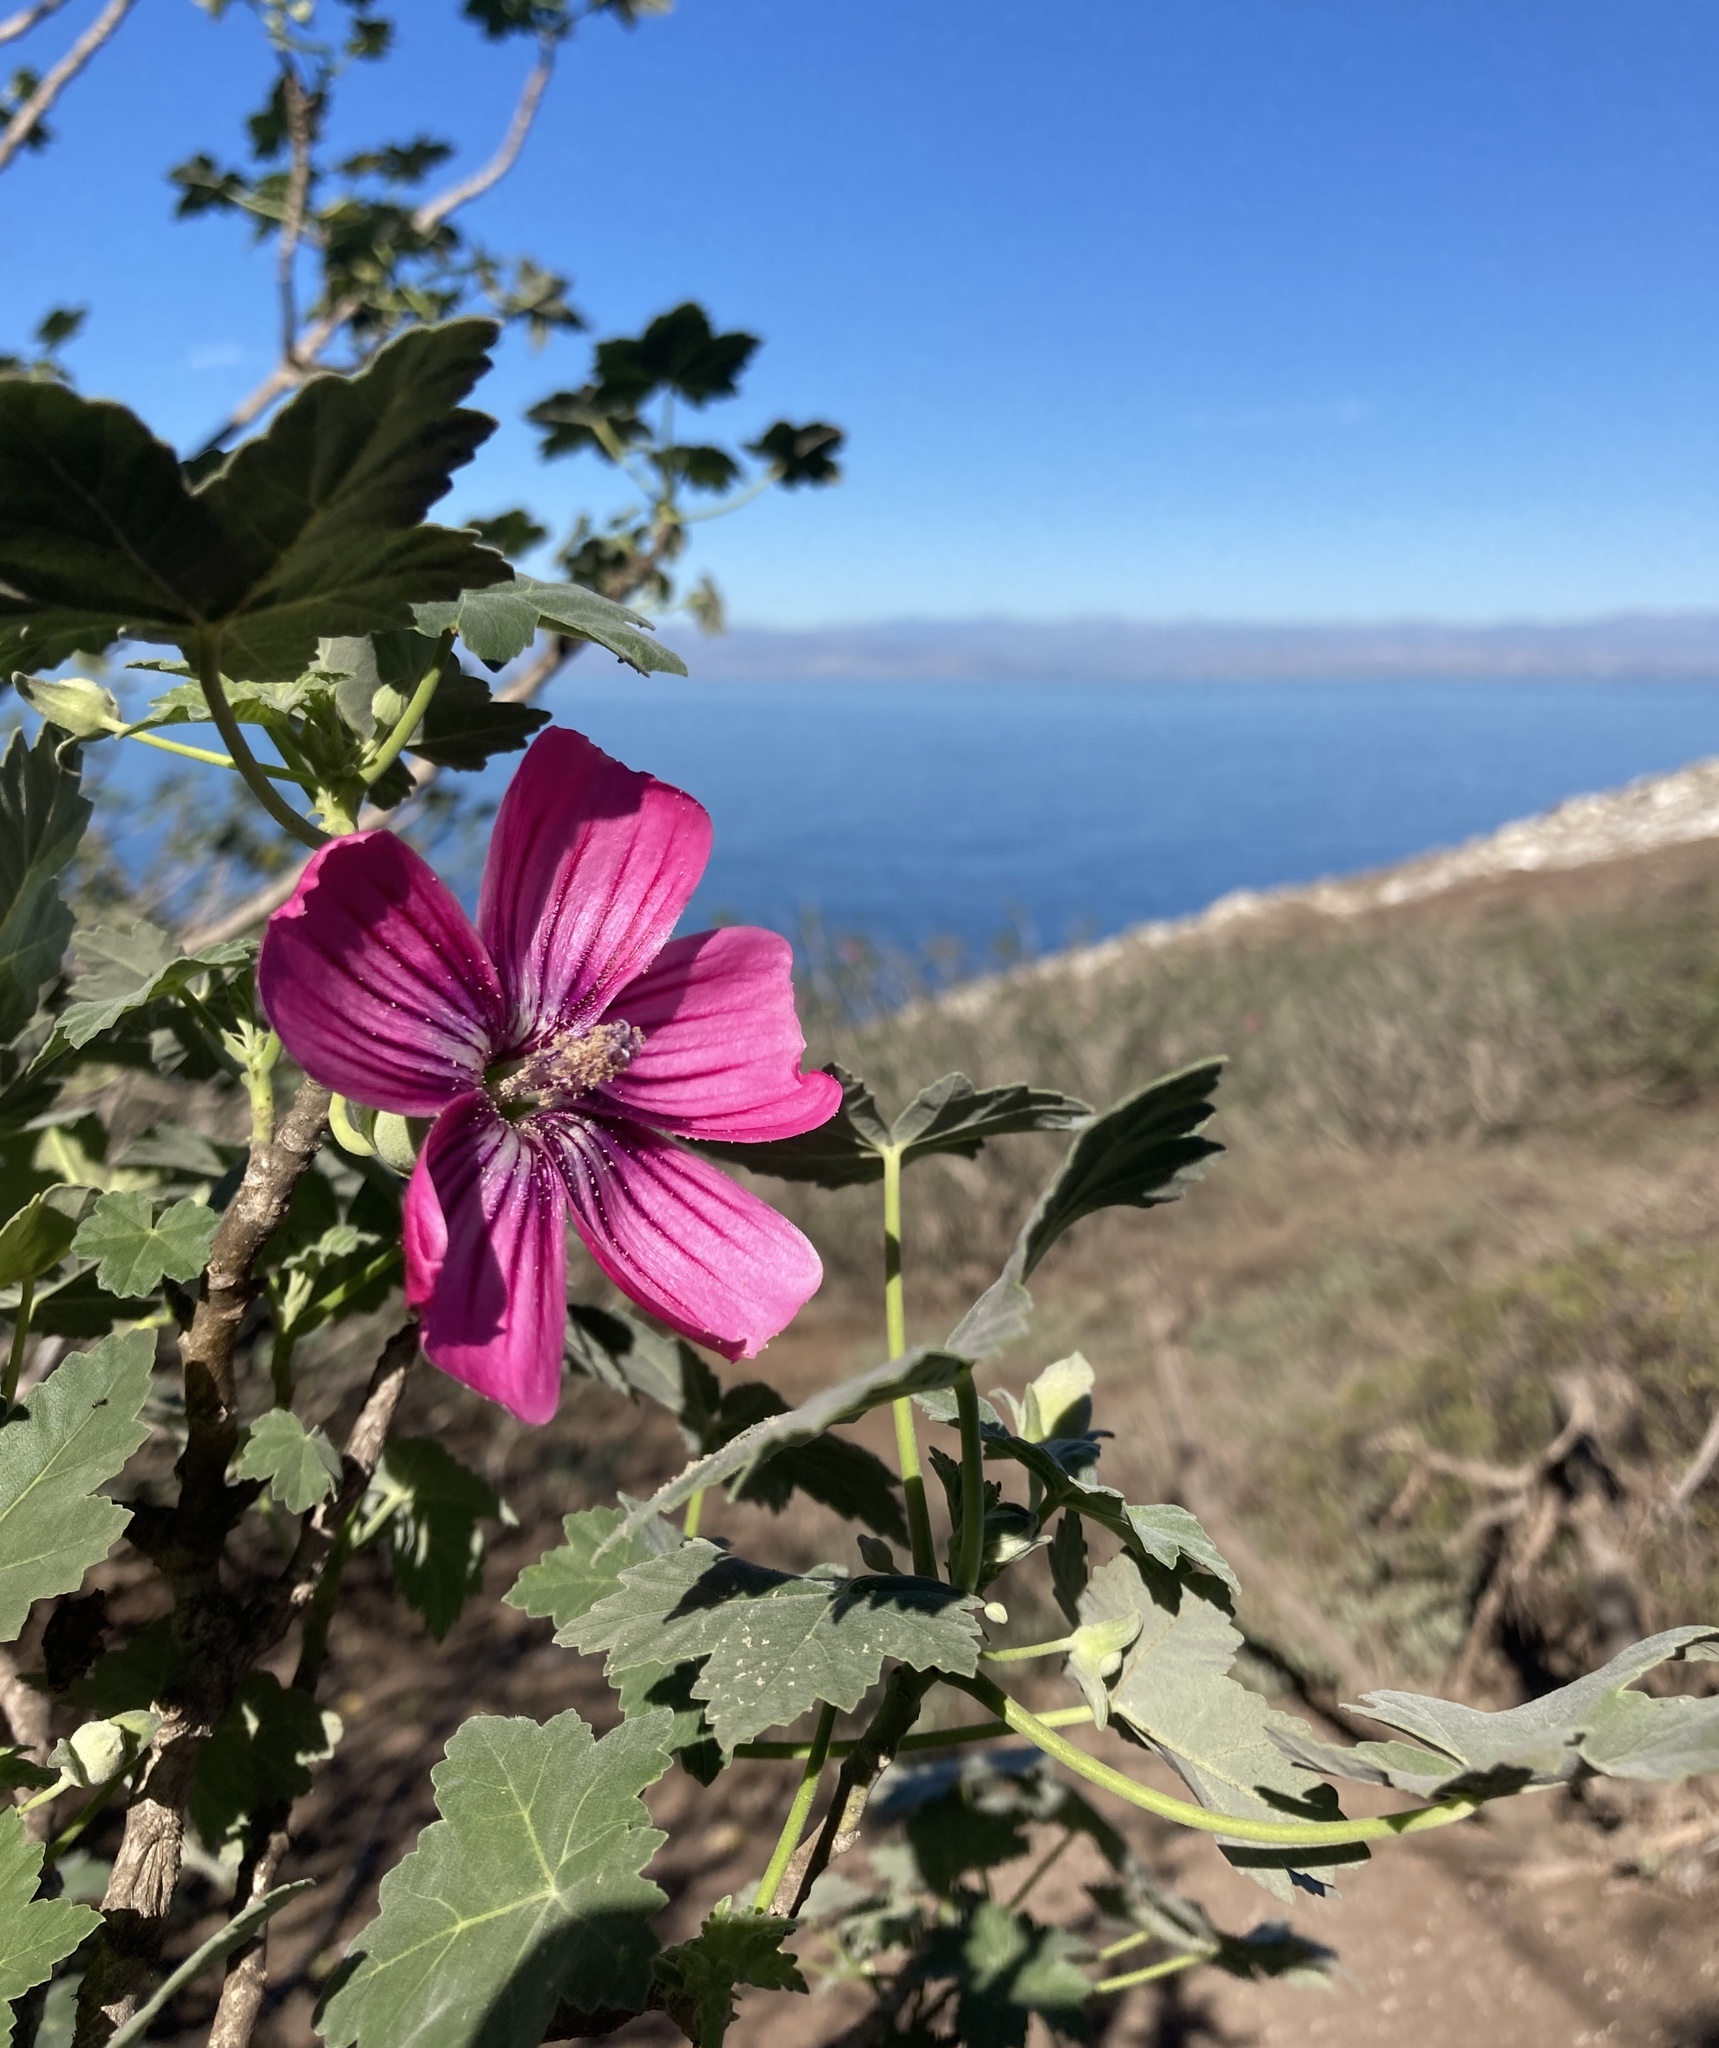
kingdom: Plantae
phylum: Tracheophyta
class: Magnoliopsida
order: Malvales
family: Malvaceae
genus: Malva
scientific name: Malva assurgentiflora
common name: Island mallow
